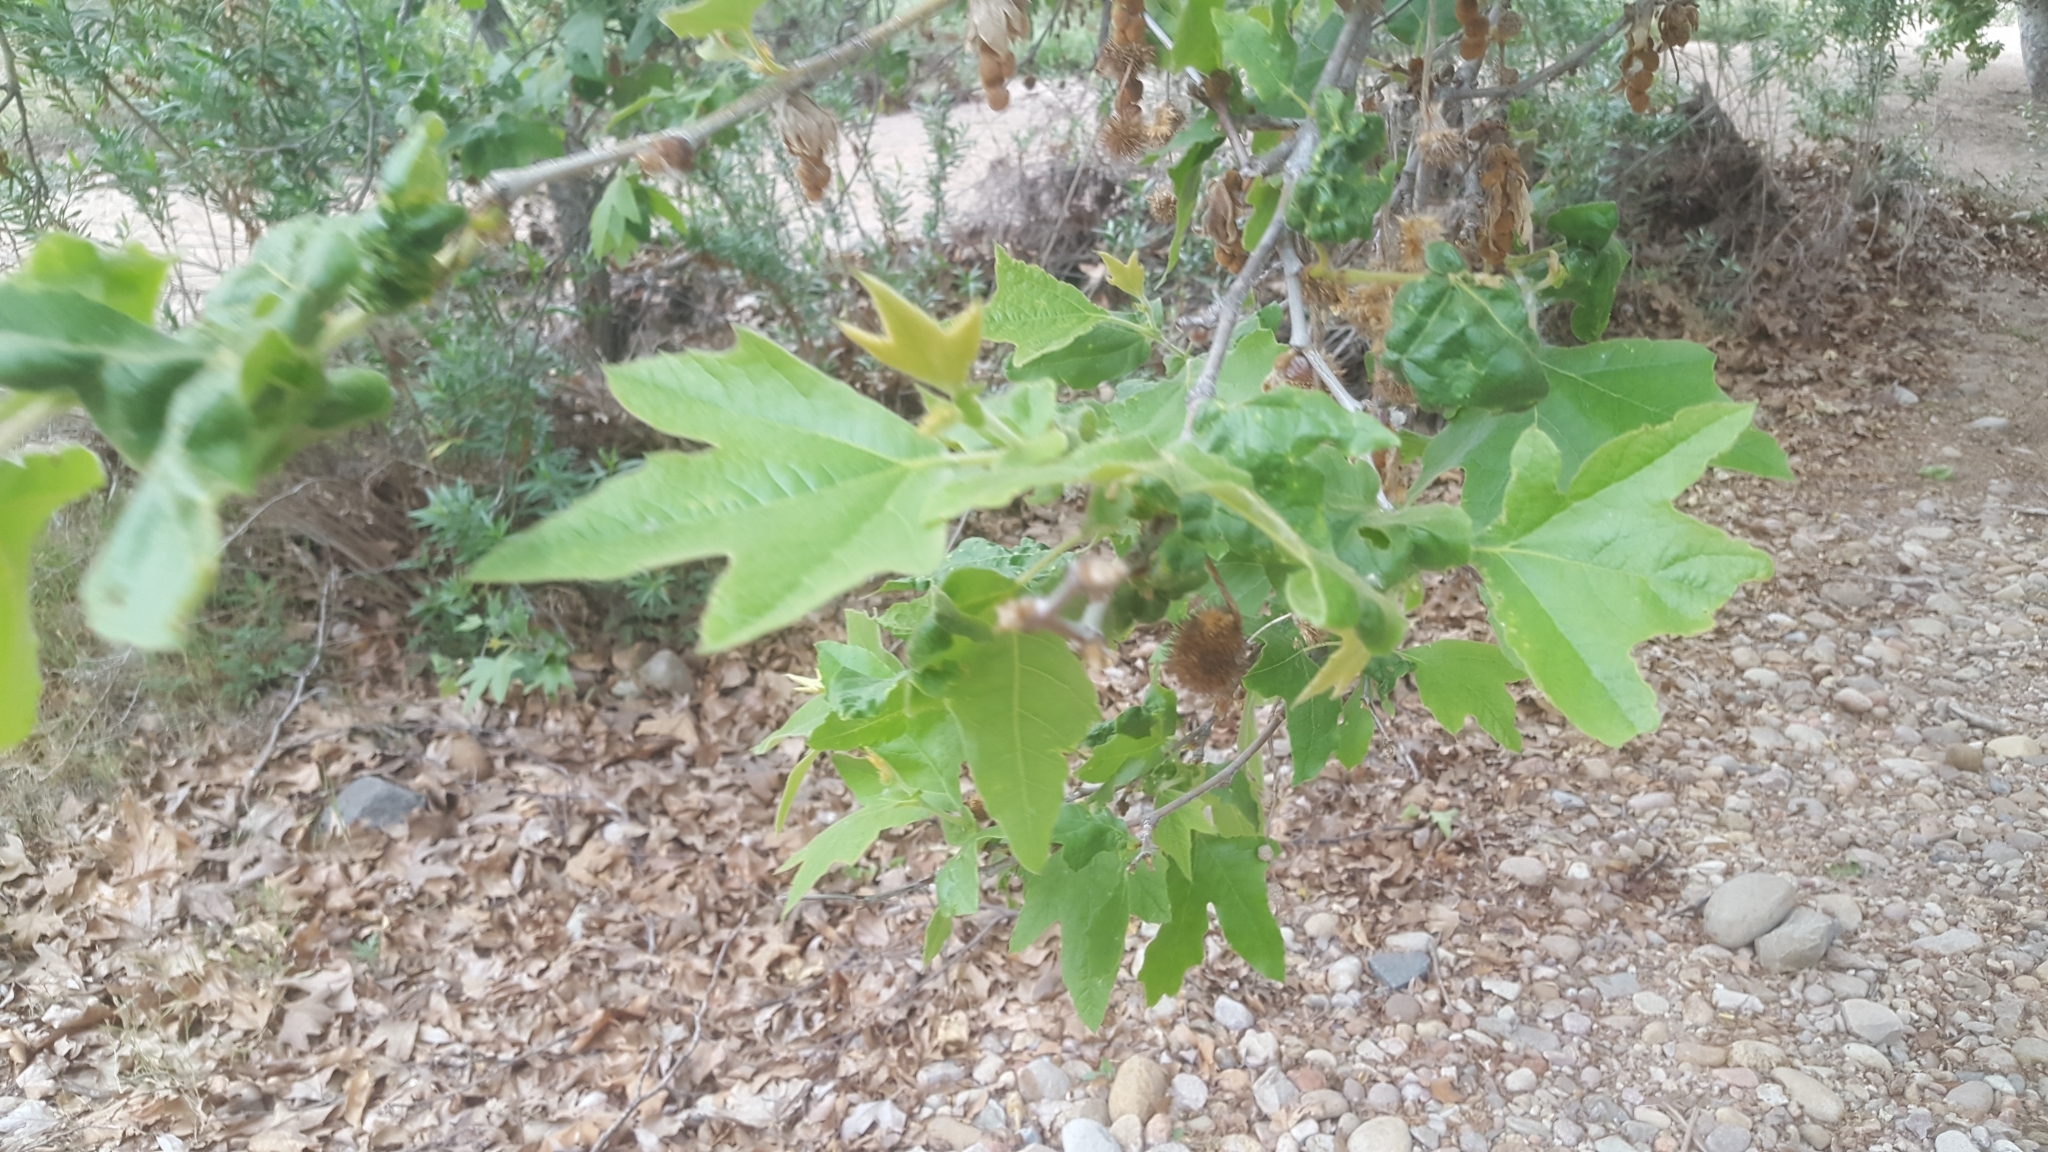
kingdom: Plantae
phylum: Tracheophyta
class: Magnoliopsida
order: Proteales
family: Platanaceae
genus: Platanus
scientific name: Platanus racemosa
